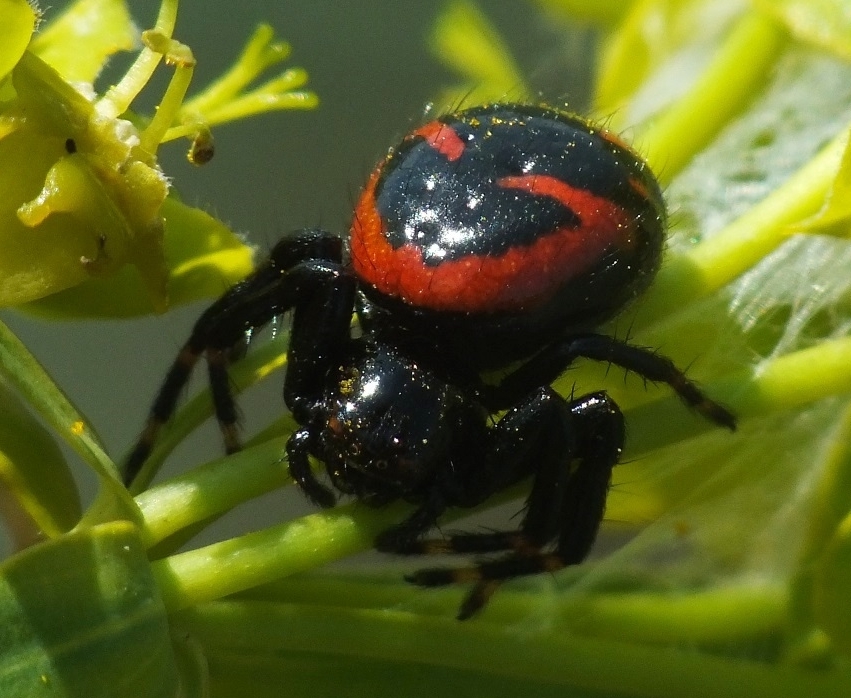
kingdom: Animalia
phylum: Arthropoda
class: Arachnida
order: Araneae
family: Thomisidae
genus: Synema
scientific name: Synema globosum
